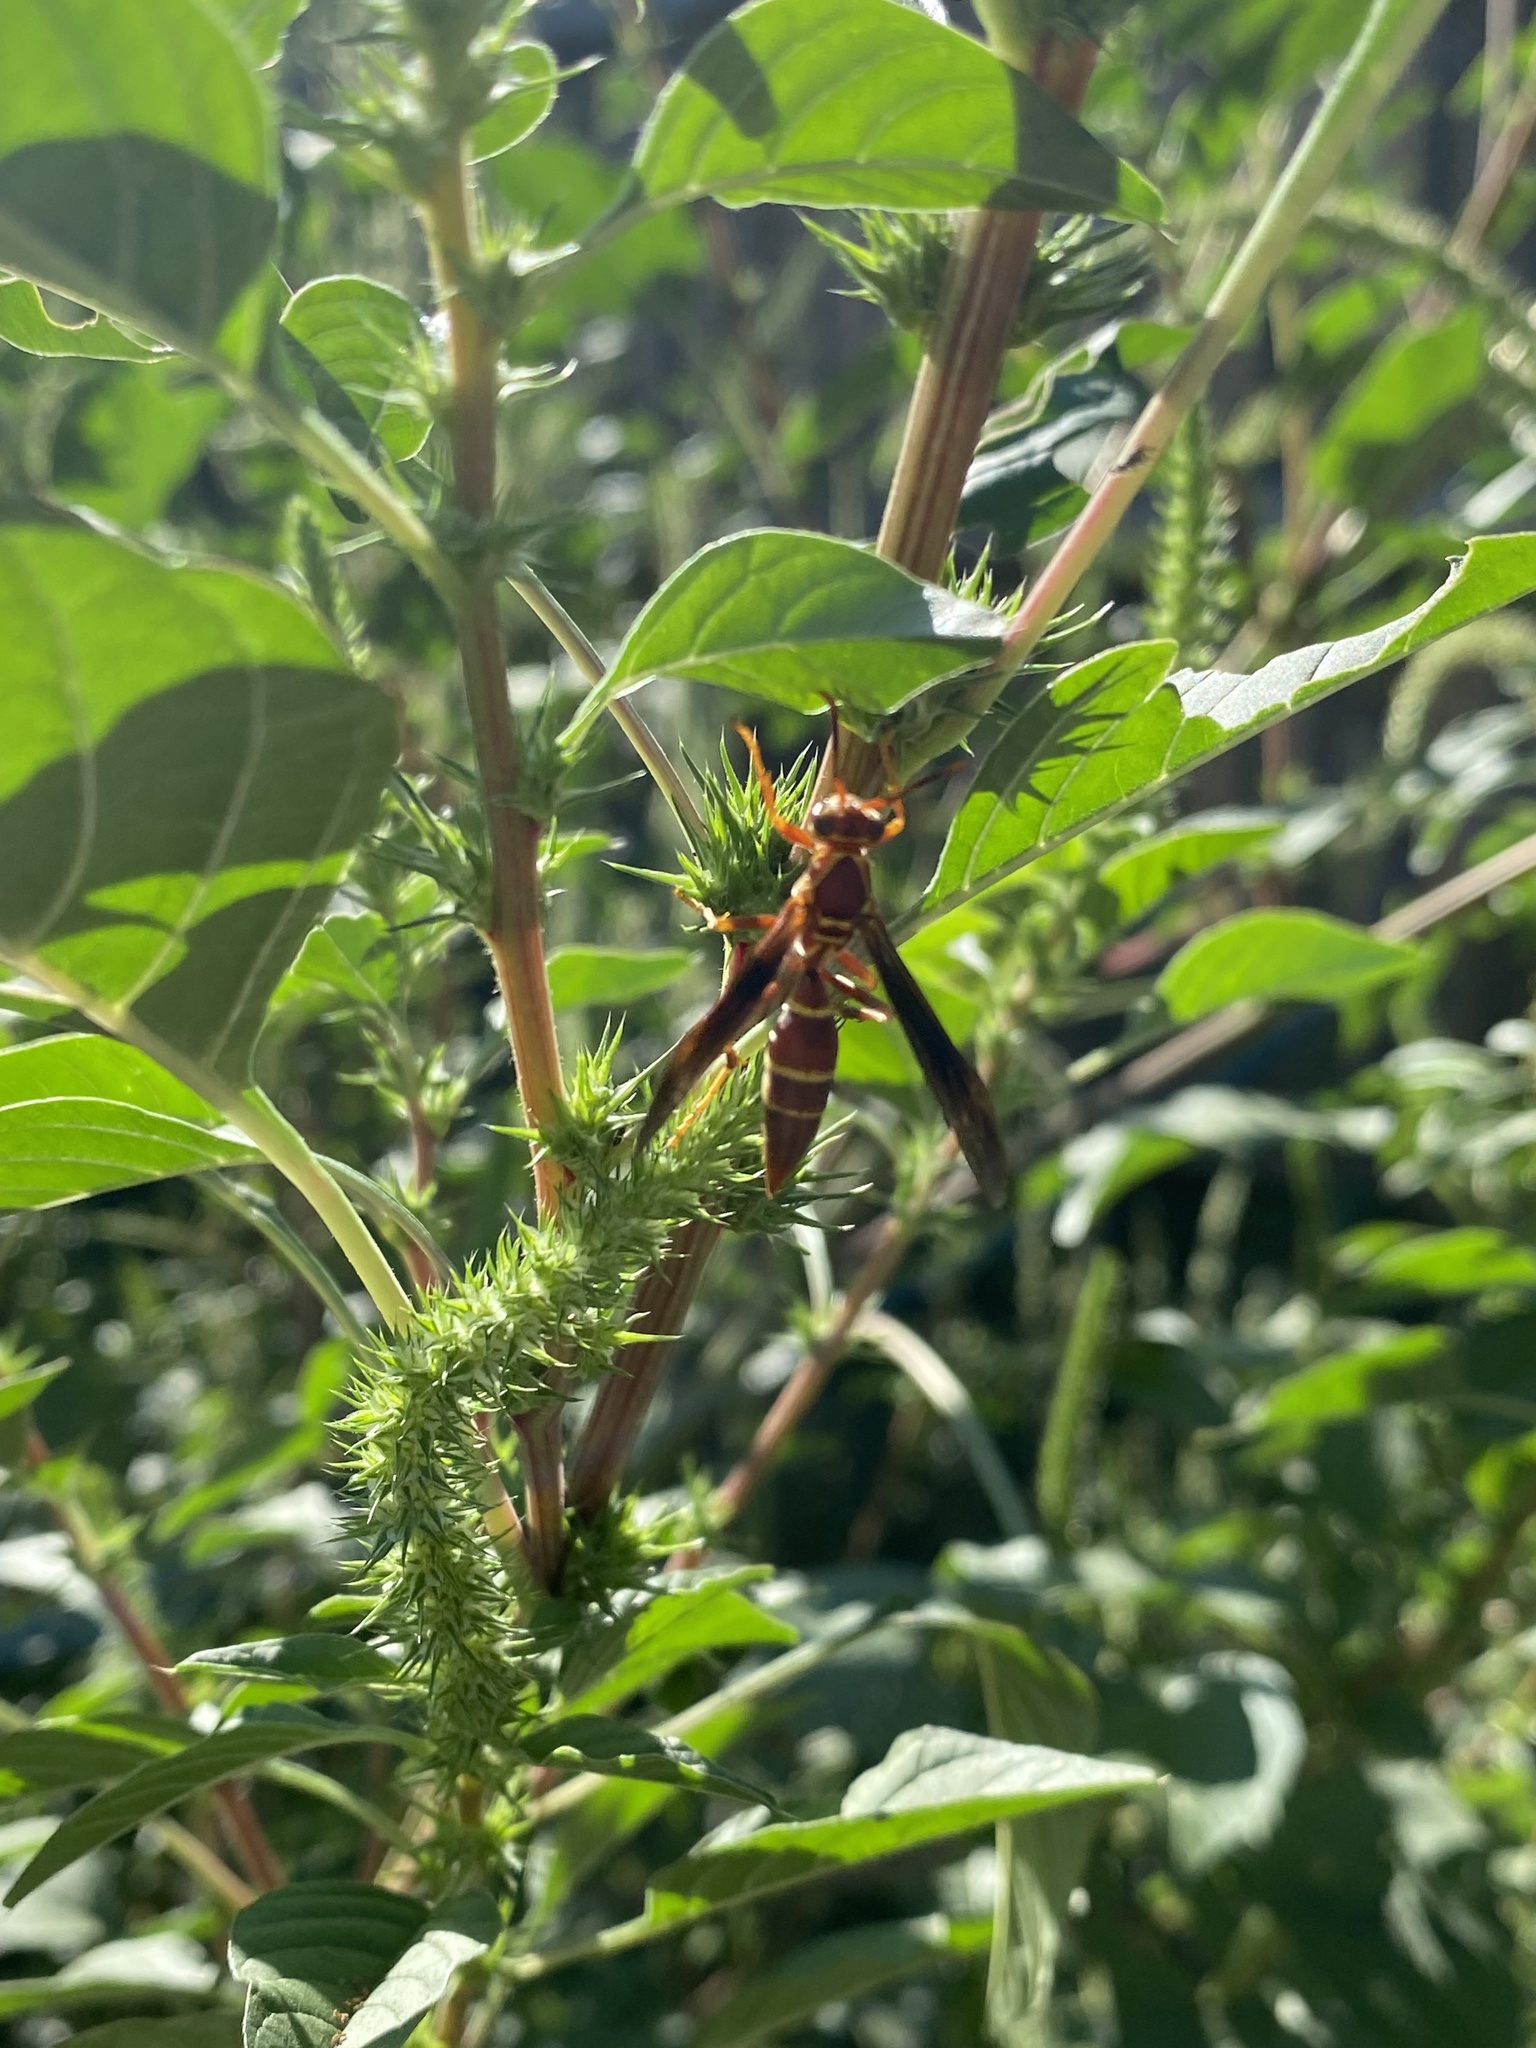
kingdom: Animalia
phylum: Arthropoda
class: Insecta
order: Hymenoptera
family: Eumenidae
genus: Polistes
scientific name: Polistes arizonensis
